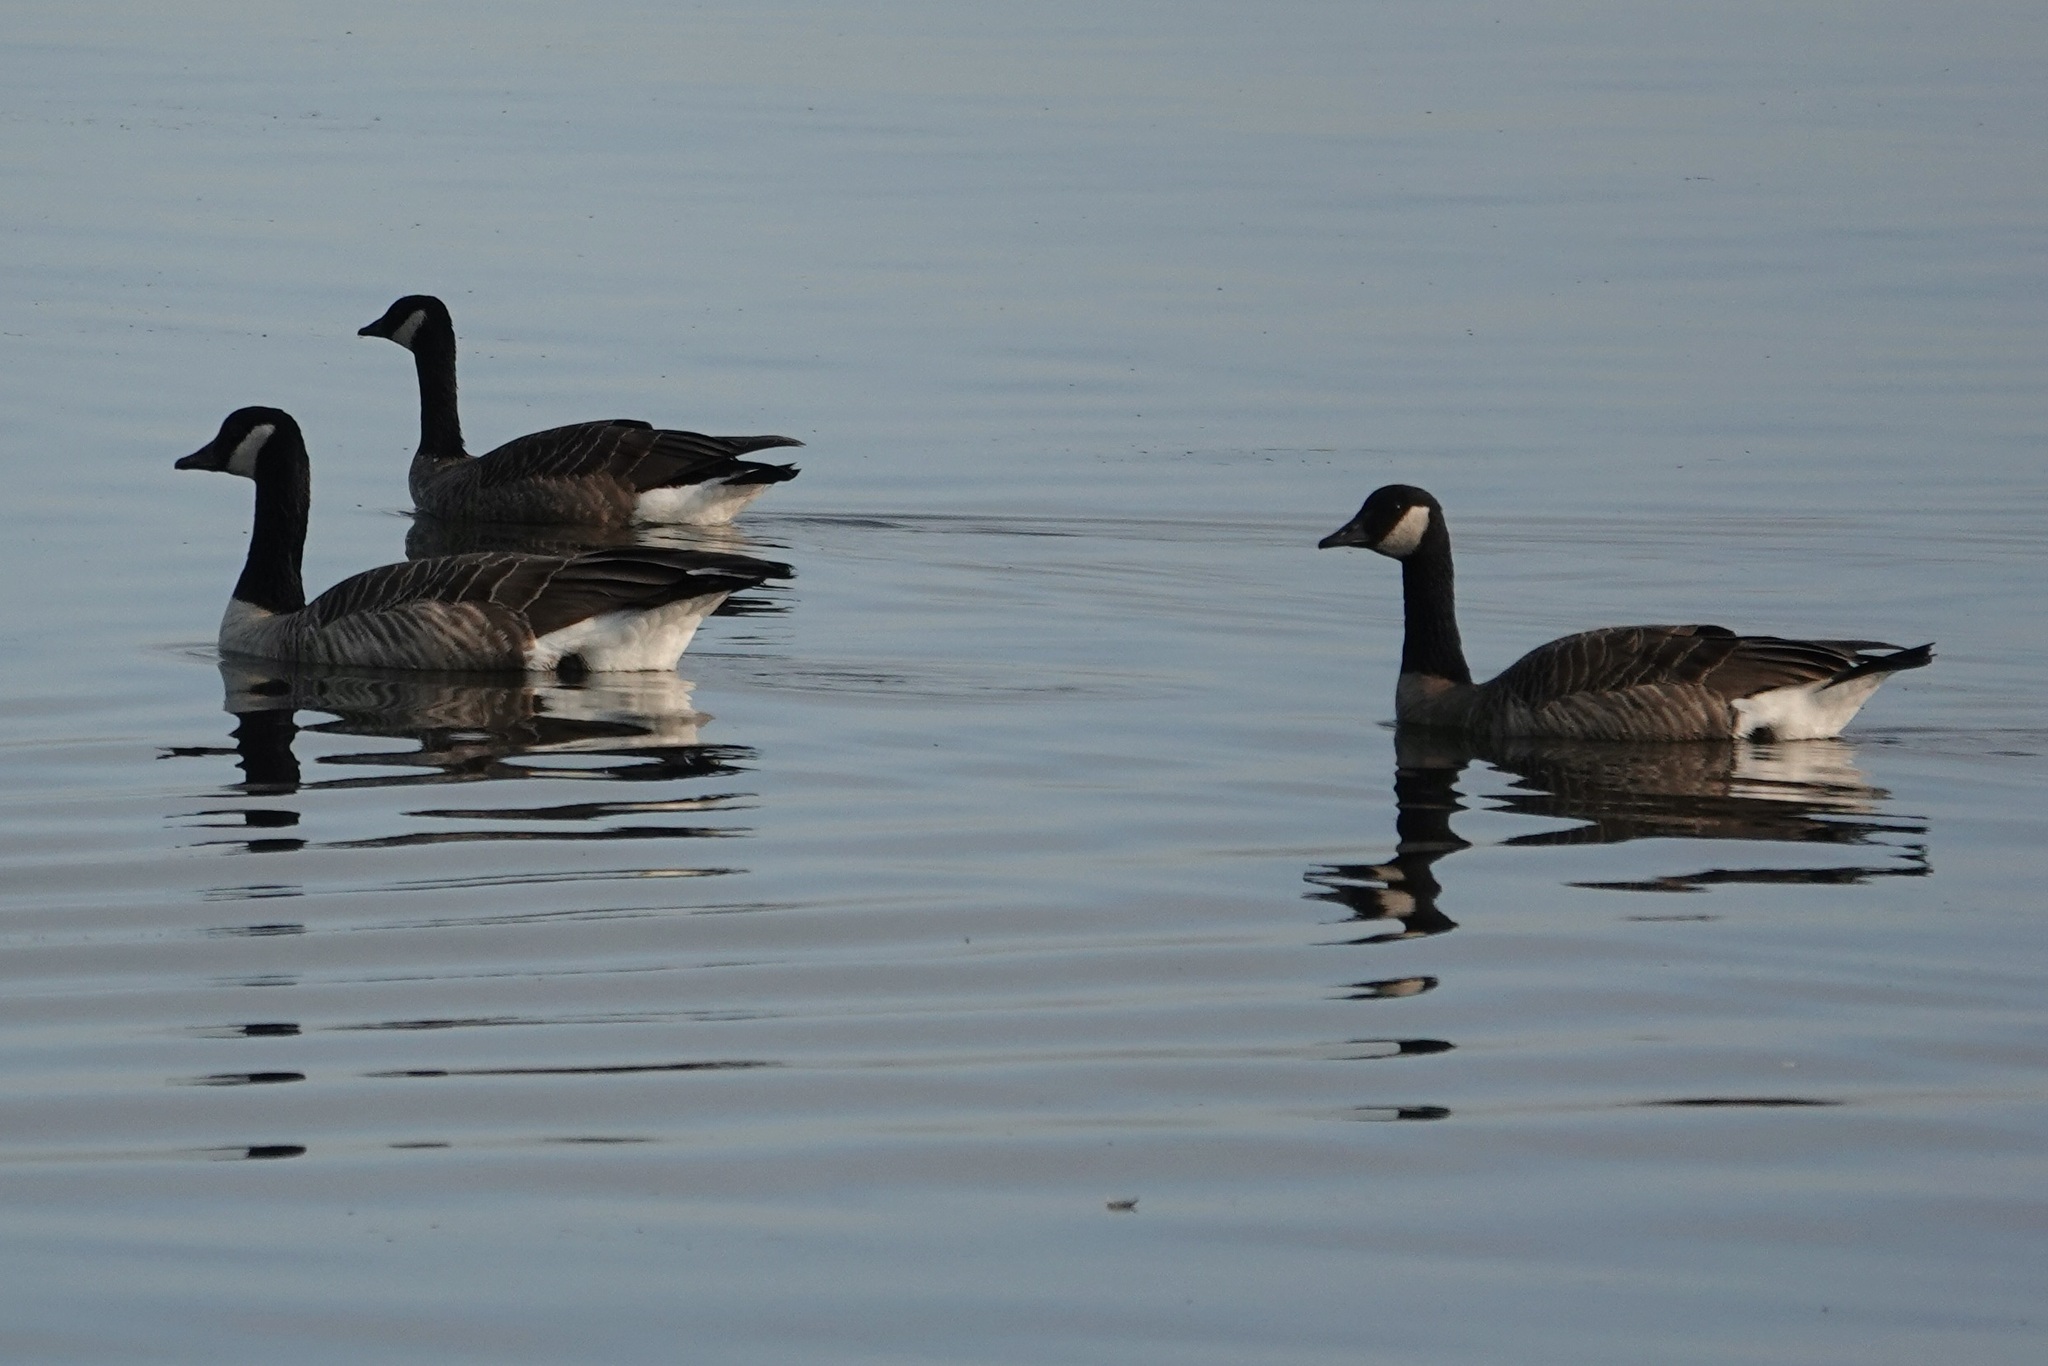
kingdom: Animalia
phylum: Chordata
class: Aves
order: Anseriformes
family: Anatidae
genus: Branta
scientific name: Branta canadensis
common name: Canada goose
